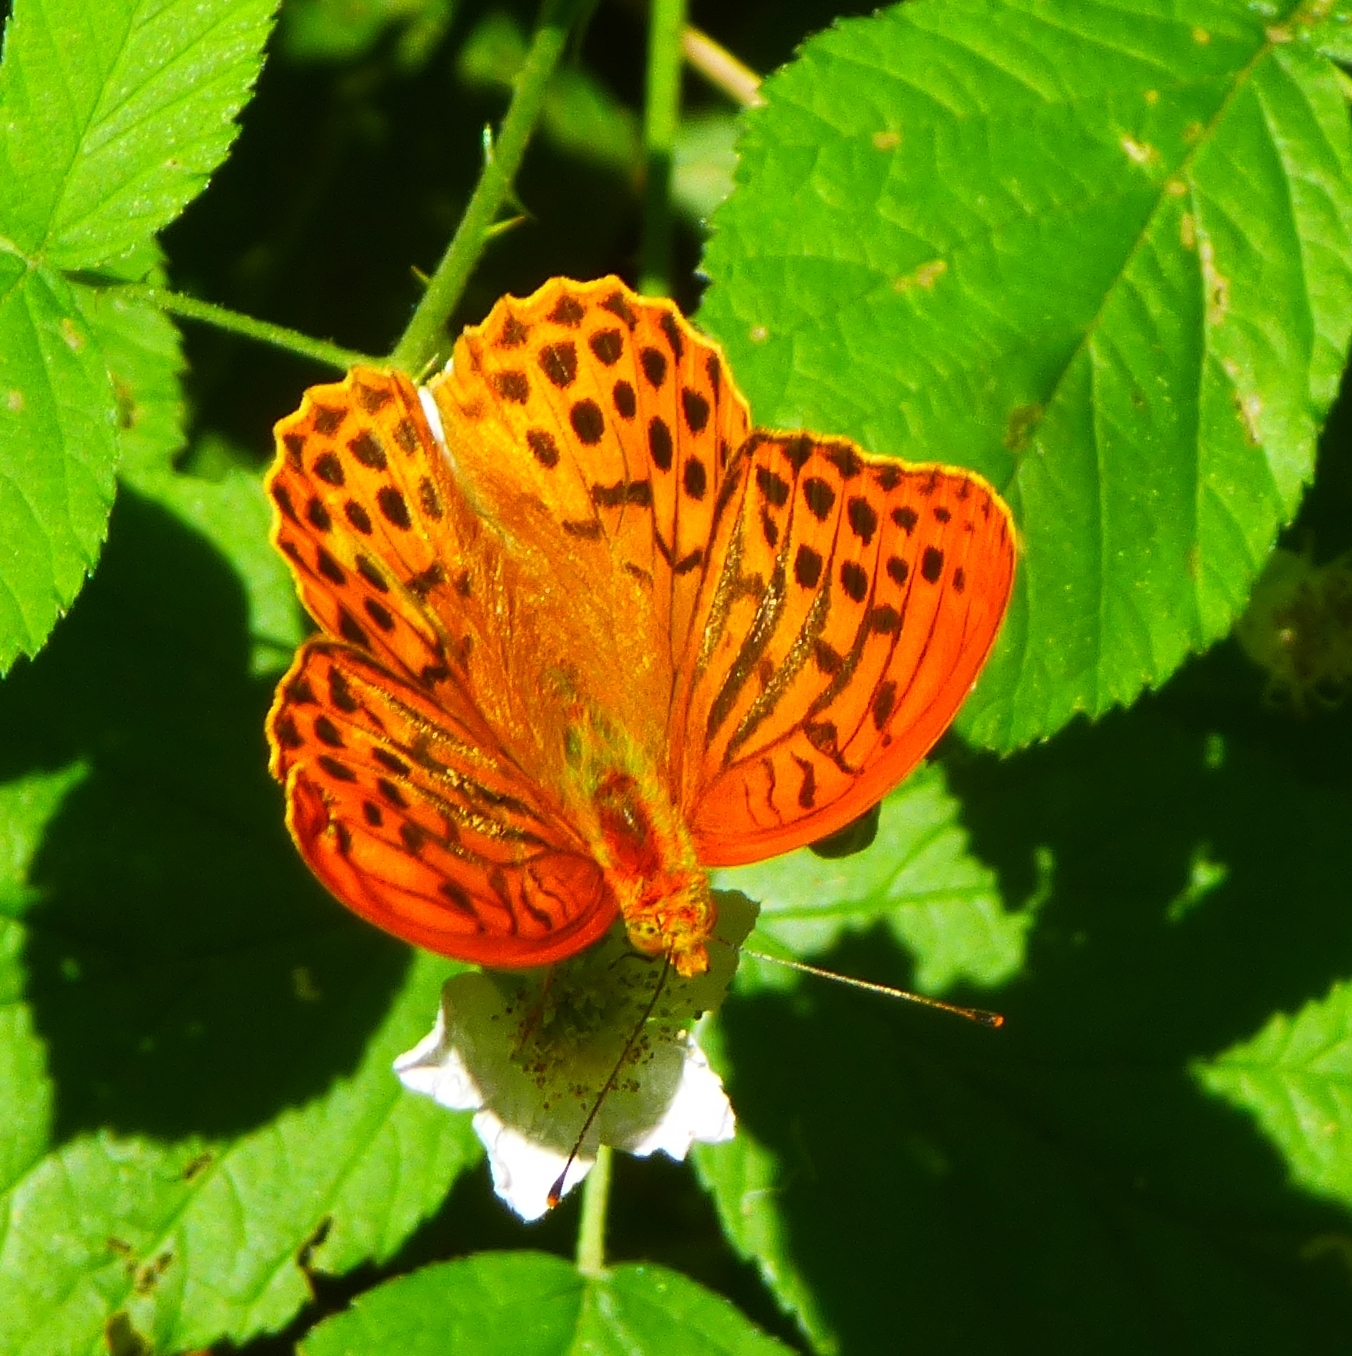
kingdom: Animalia
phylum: Arthropoda
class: Insecta
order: Lepidoptera
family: Nymphalidae
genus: Argynnis
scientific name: Argynnis paphia
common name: Silver-washed fritillary
